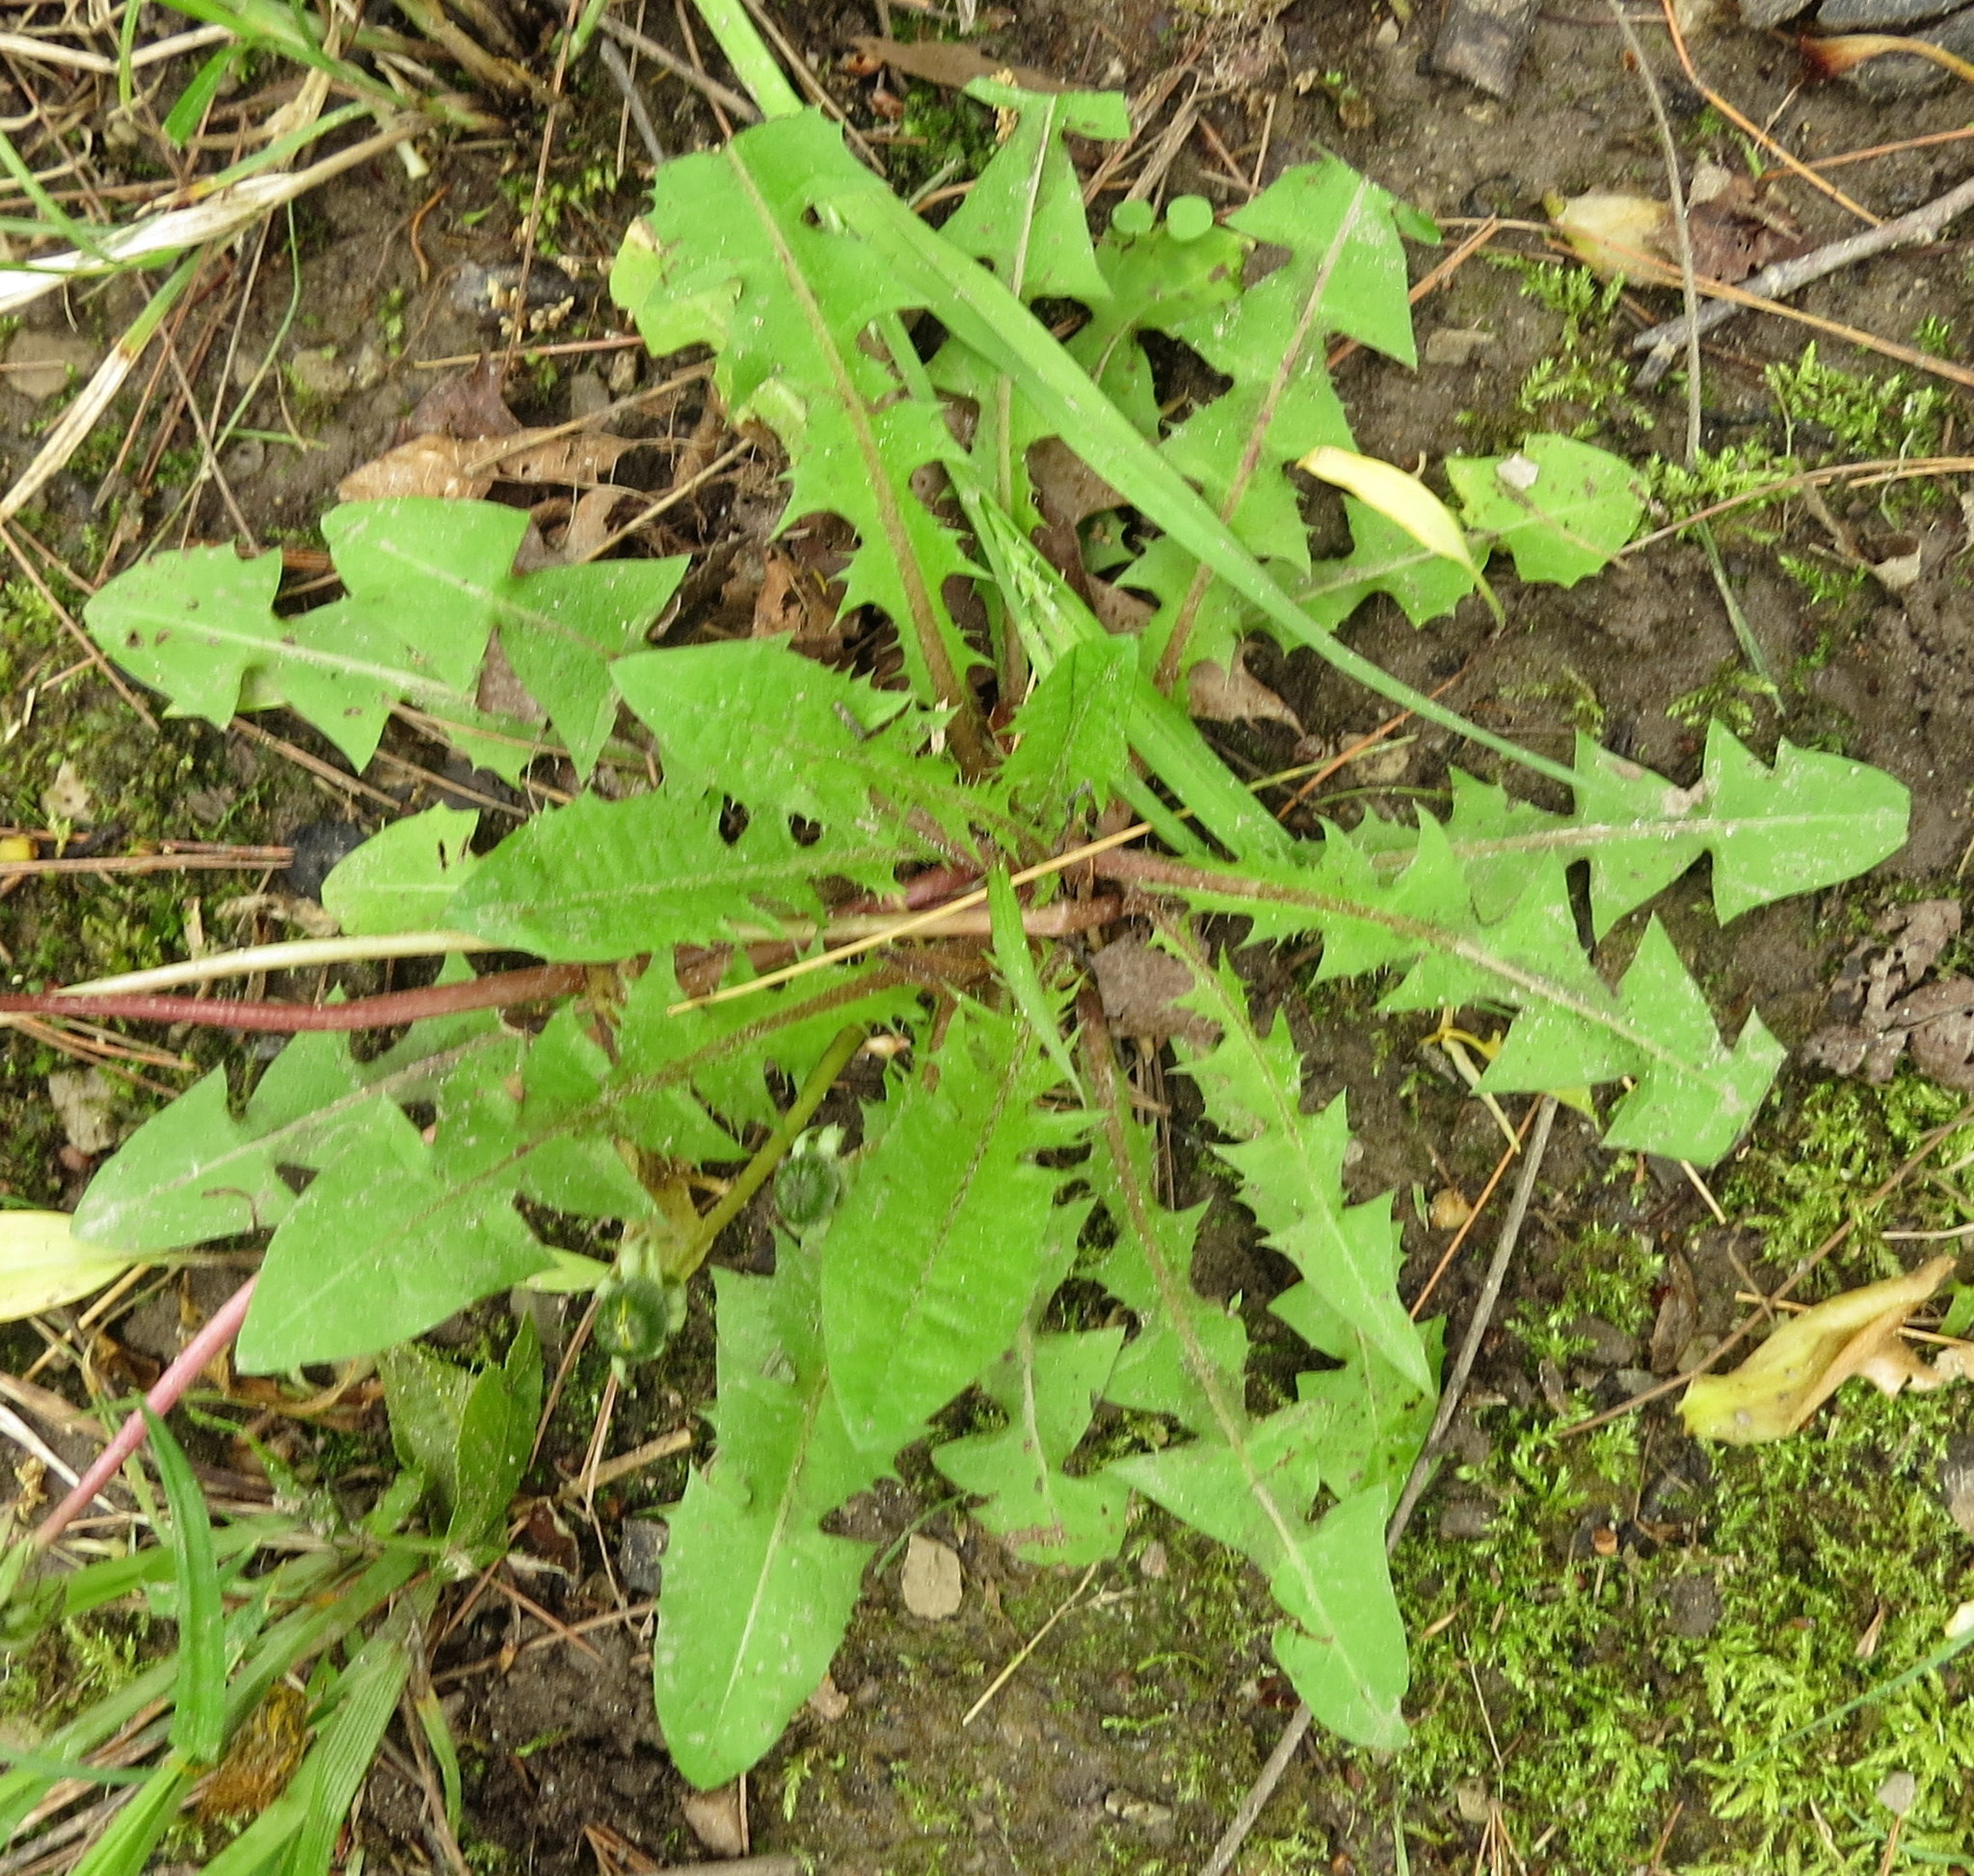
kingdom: Plantae
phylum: Tracheophyta
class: Magnoliopsida
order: Asterales
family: Asteraceae
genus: Taraxacum
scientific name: Taraxacum erythrospermum
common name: Rock dandelion
